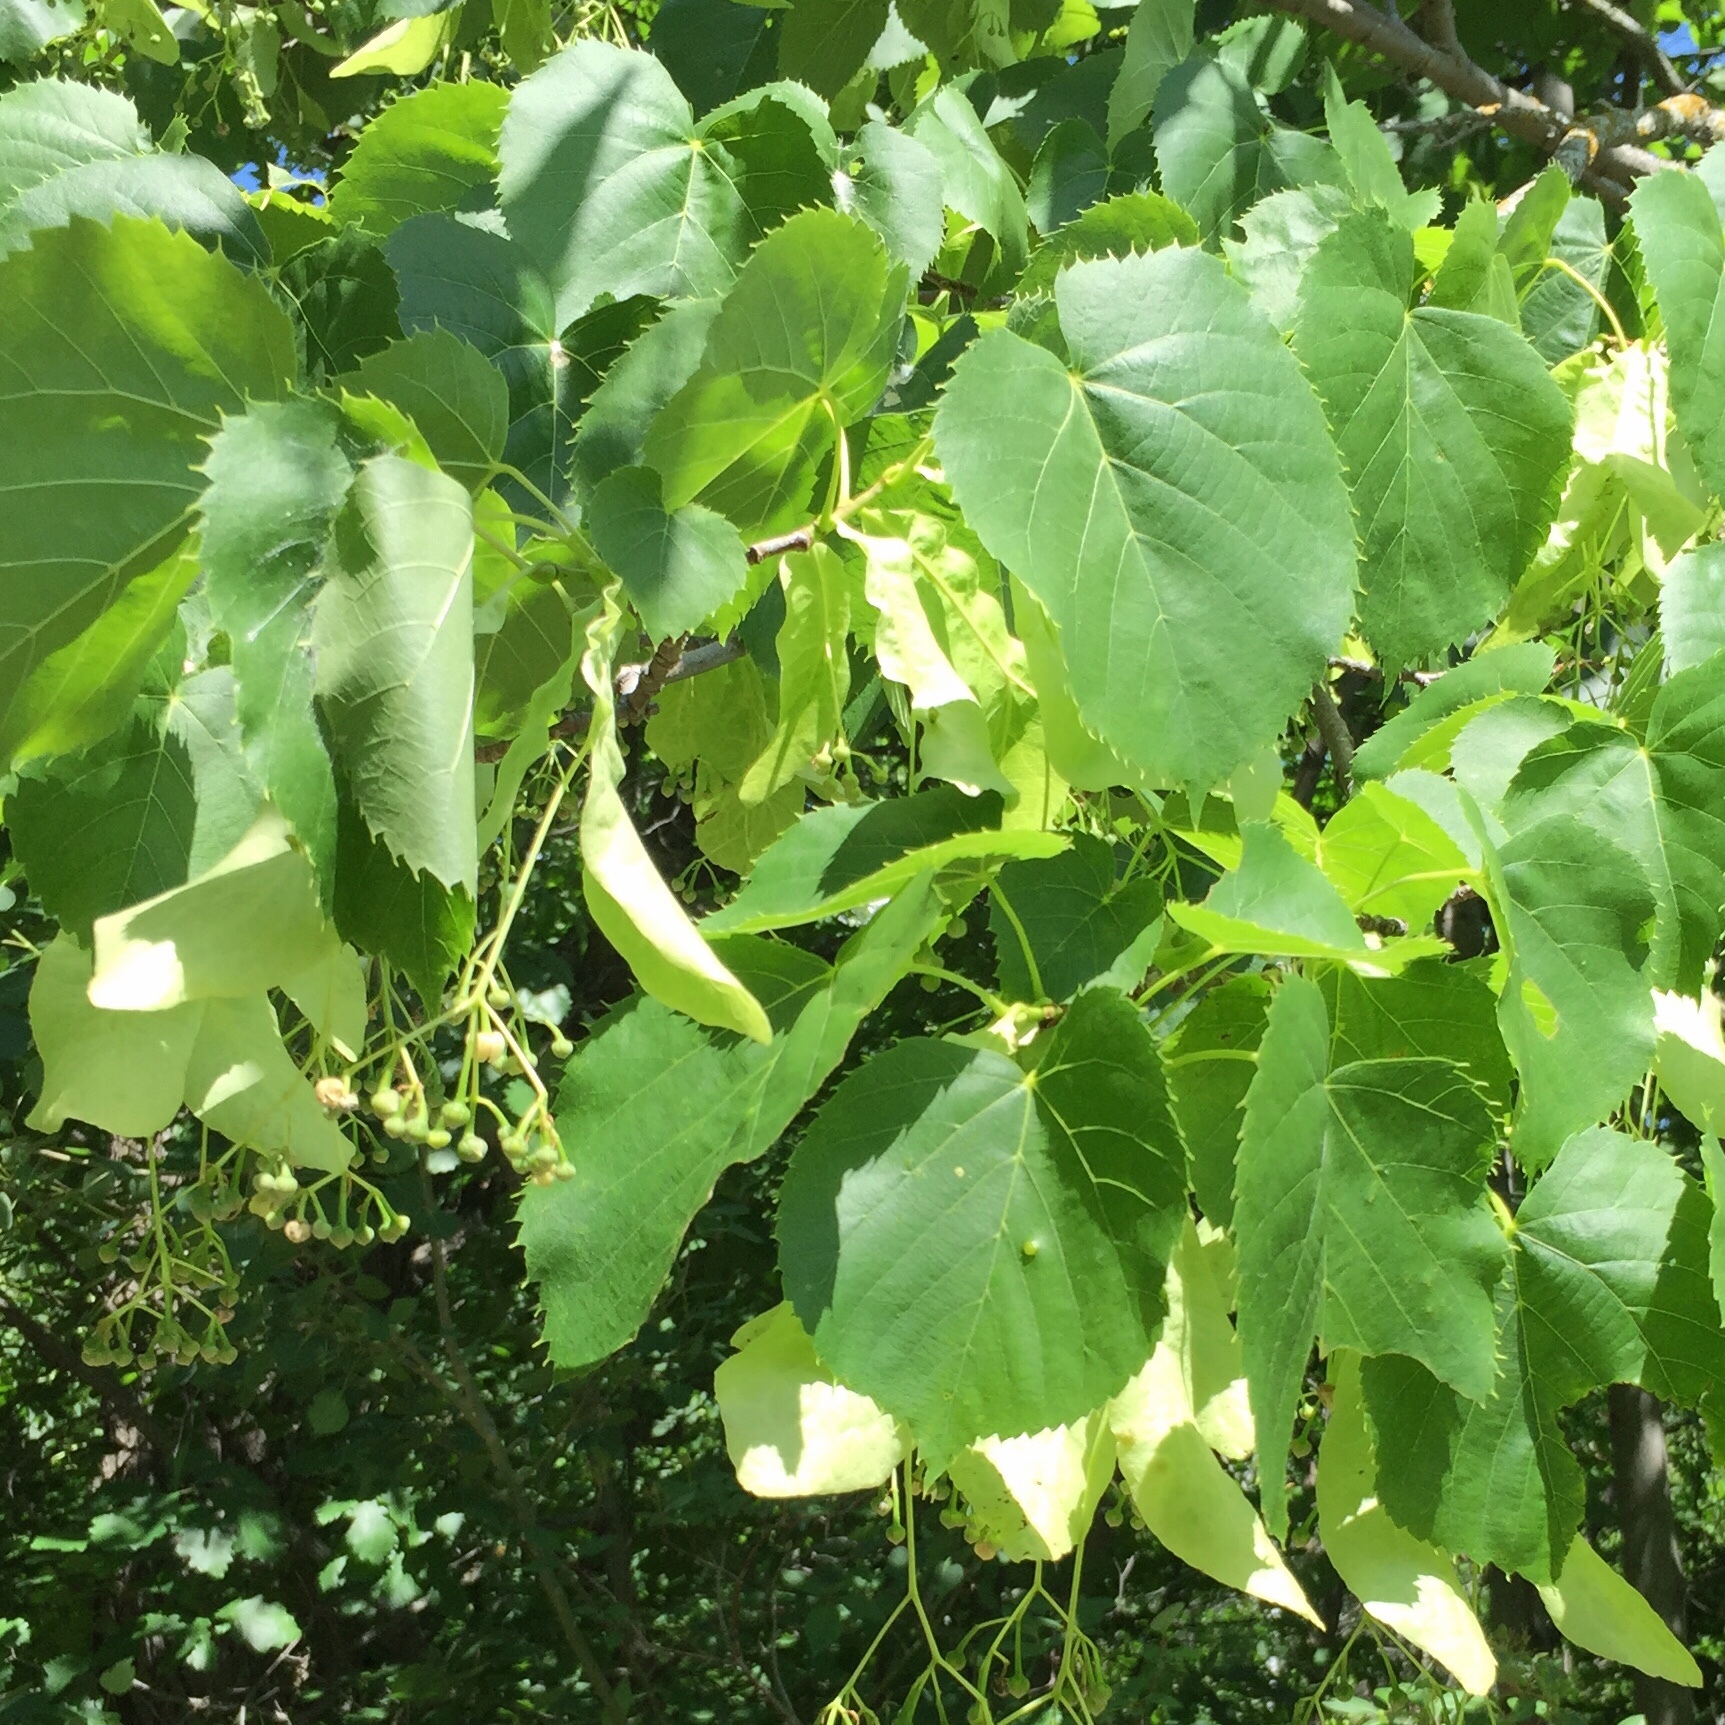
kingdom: Plantae
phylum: Tracheophyta
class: Magnoliopsida
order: Malvales
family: Malvaceae
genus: Tilia
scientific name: Tilia americana
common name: Basswood
